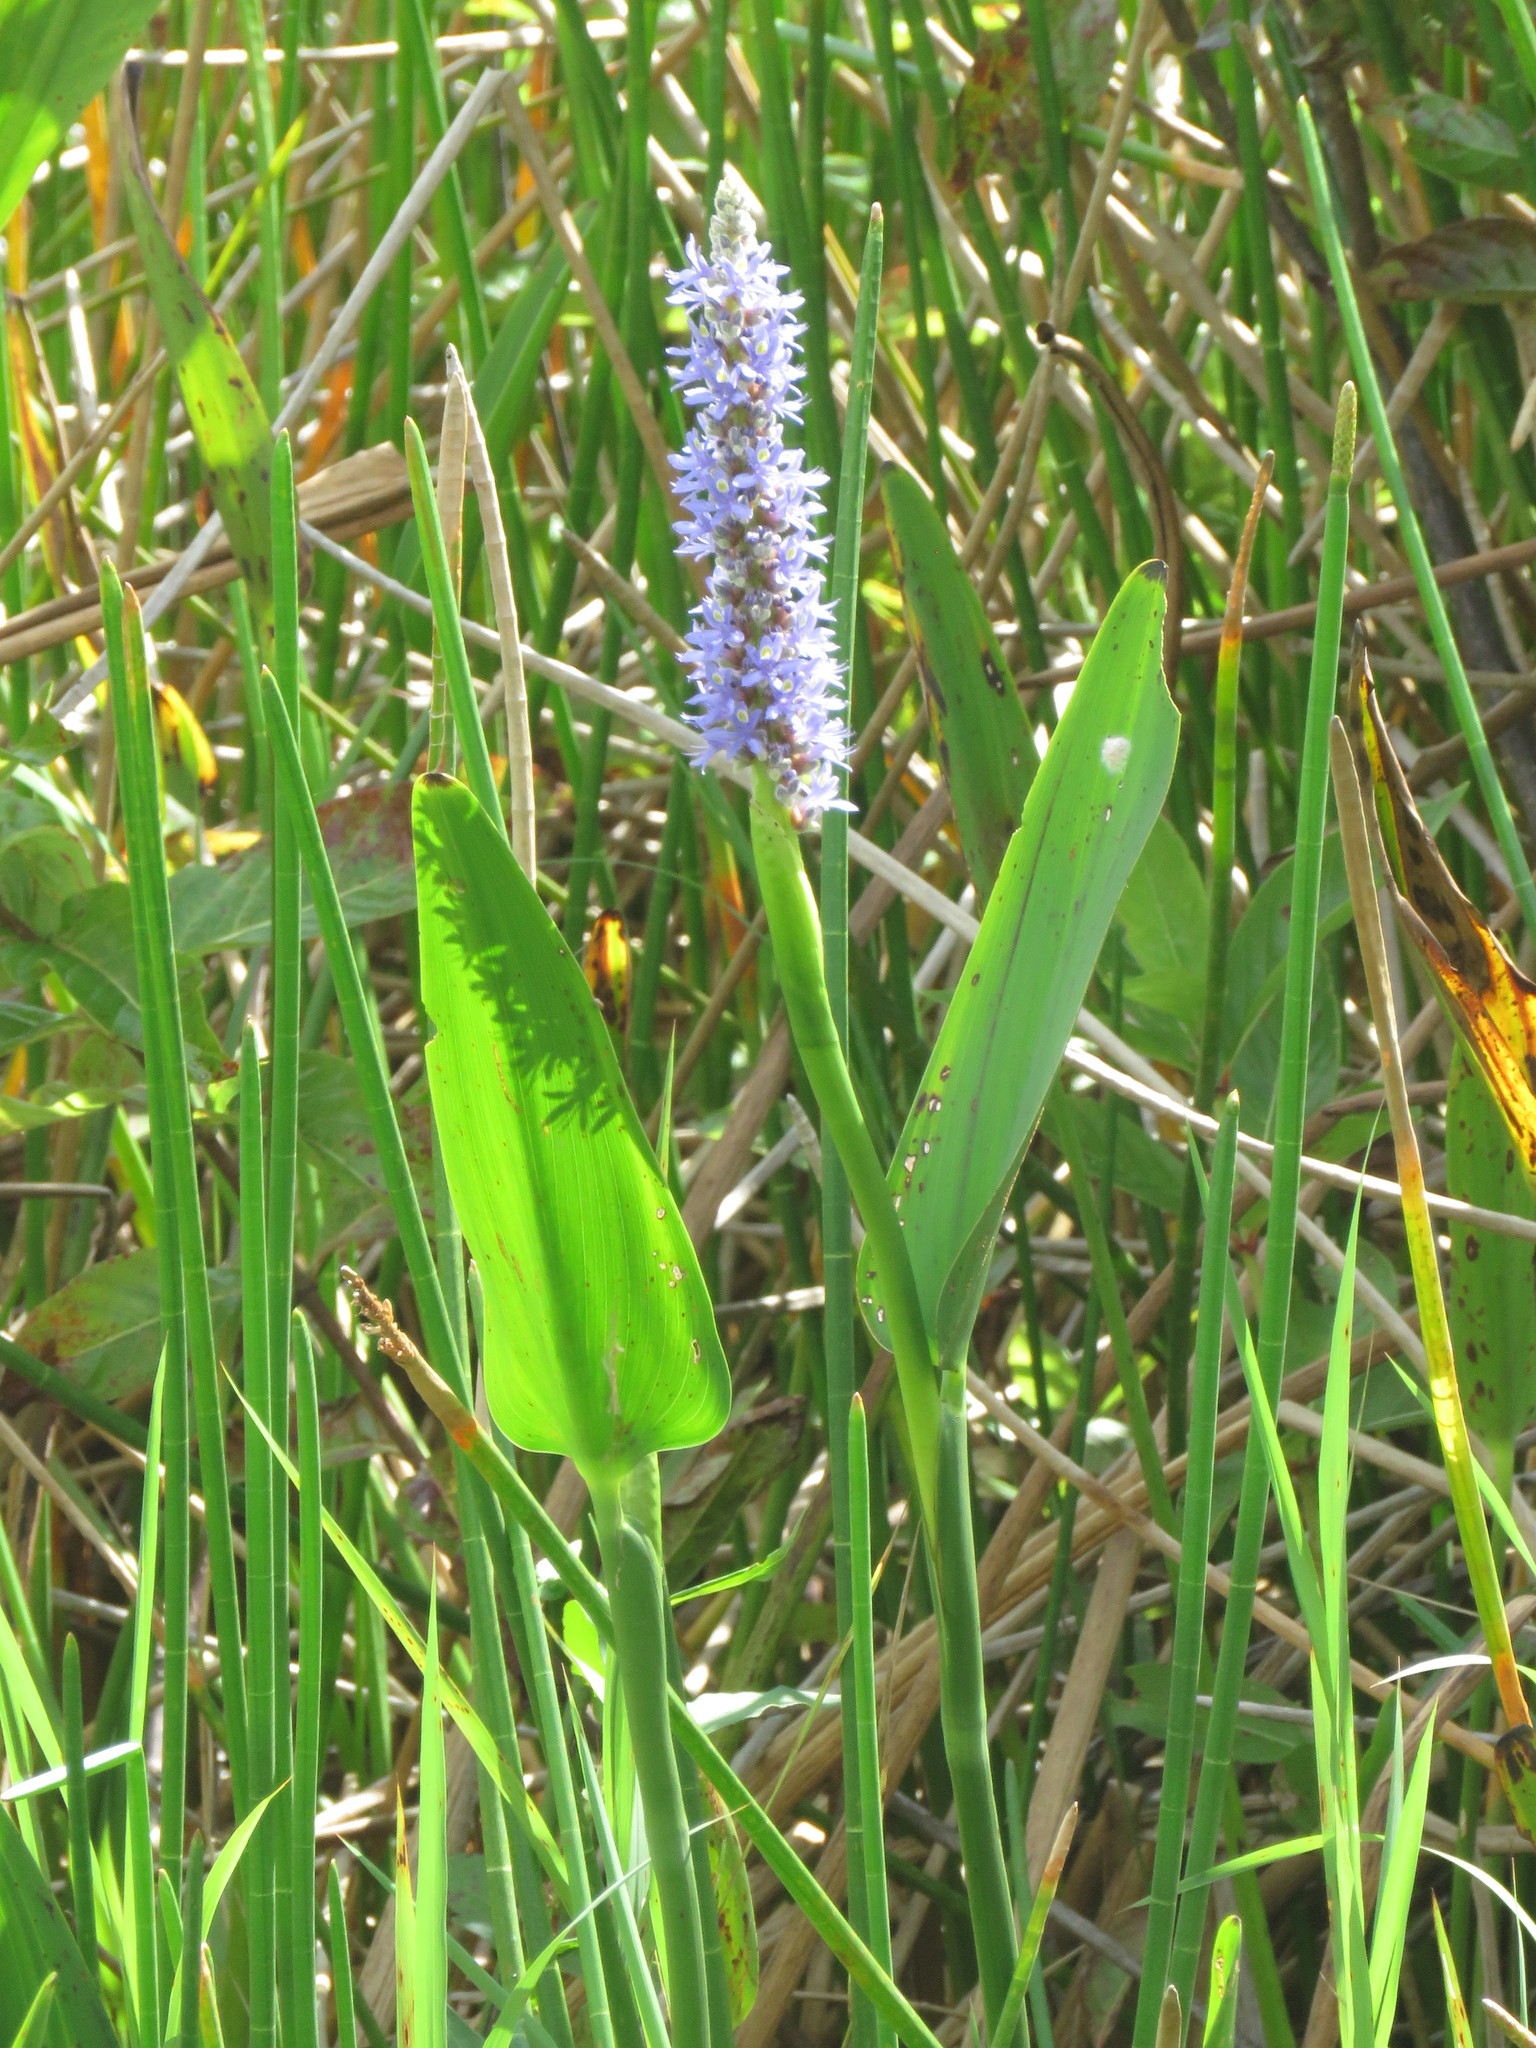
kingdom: Plantae
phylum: Tracheophyta
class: Liliopsida
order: Commelinales
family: Pontederiaceae
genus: Pontederia
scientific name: Pontederia cordata
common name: Pickerelweed
